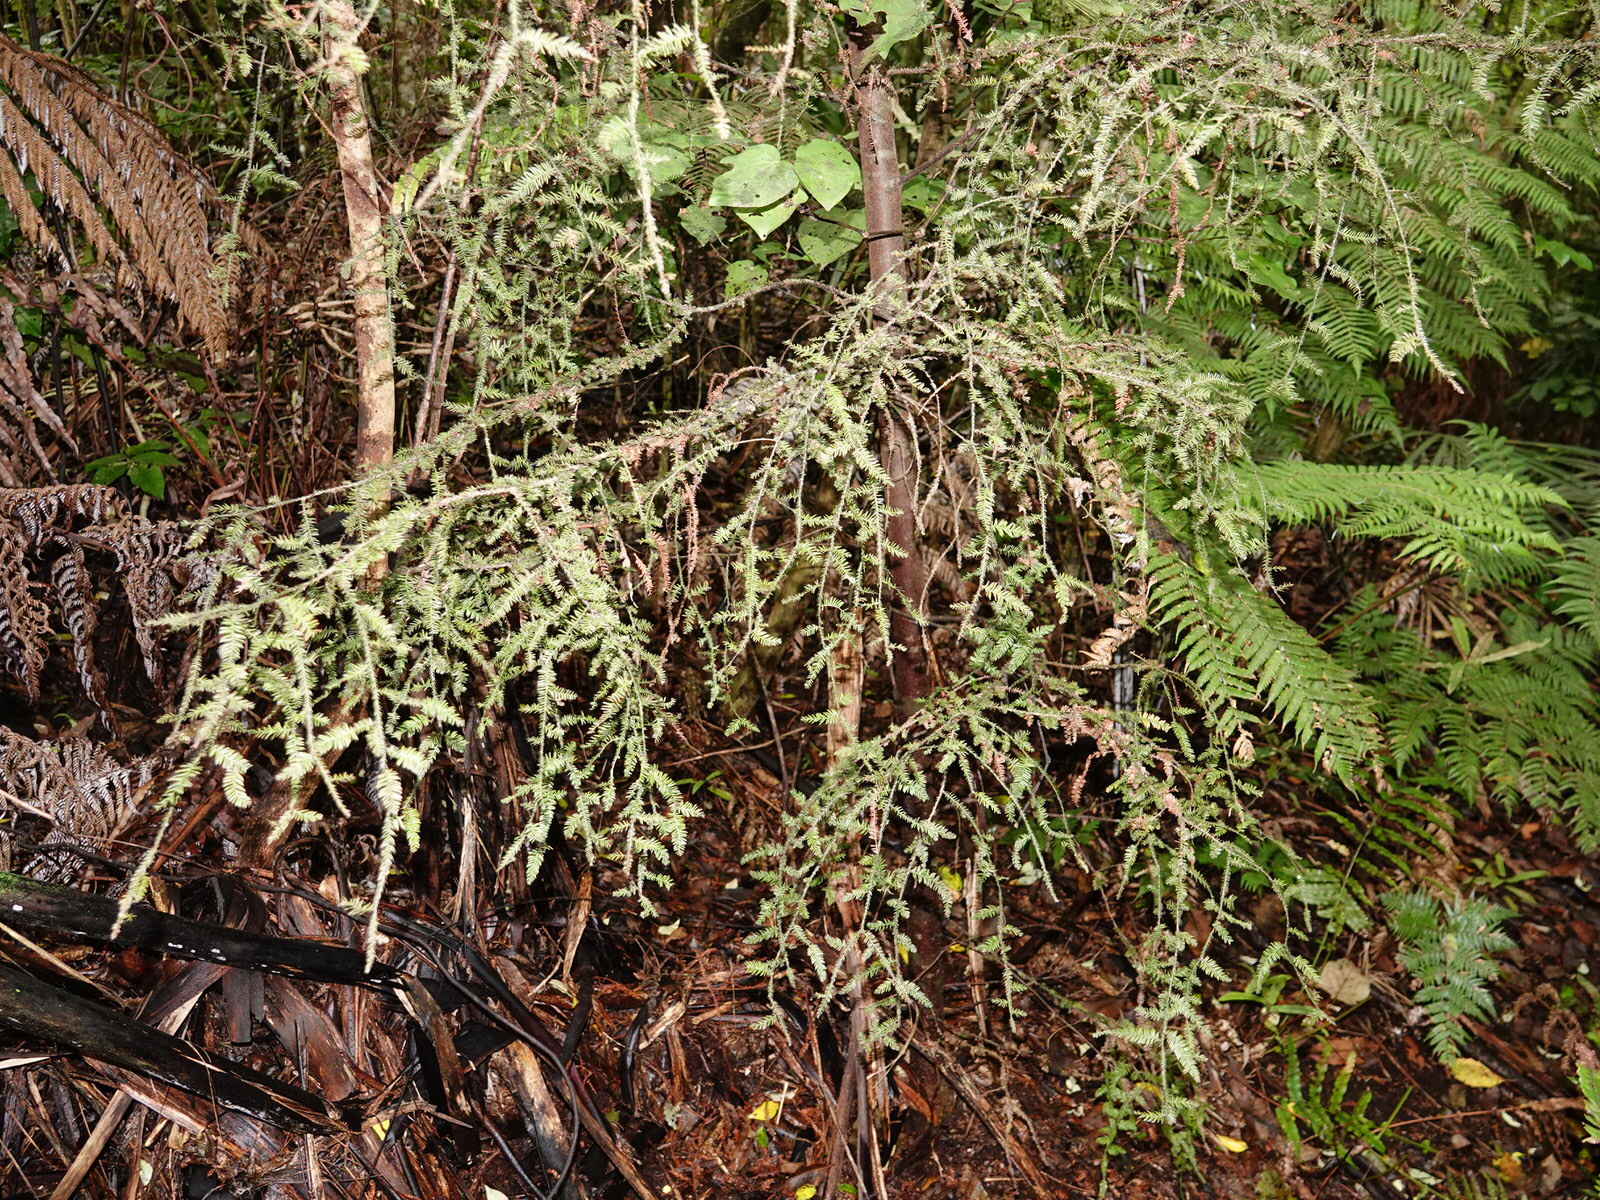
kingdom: Plantae
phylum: Tracheophyta
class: Pinopsida
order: Pinales
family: Podocarpaceae
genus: Dacrycarpus
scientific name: Dacrycarpus dacrydioides
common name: White pine
